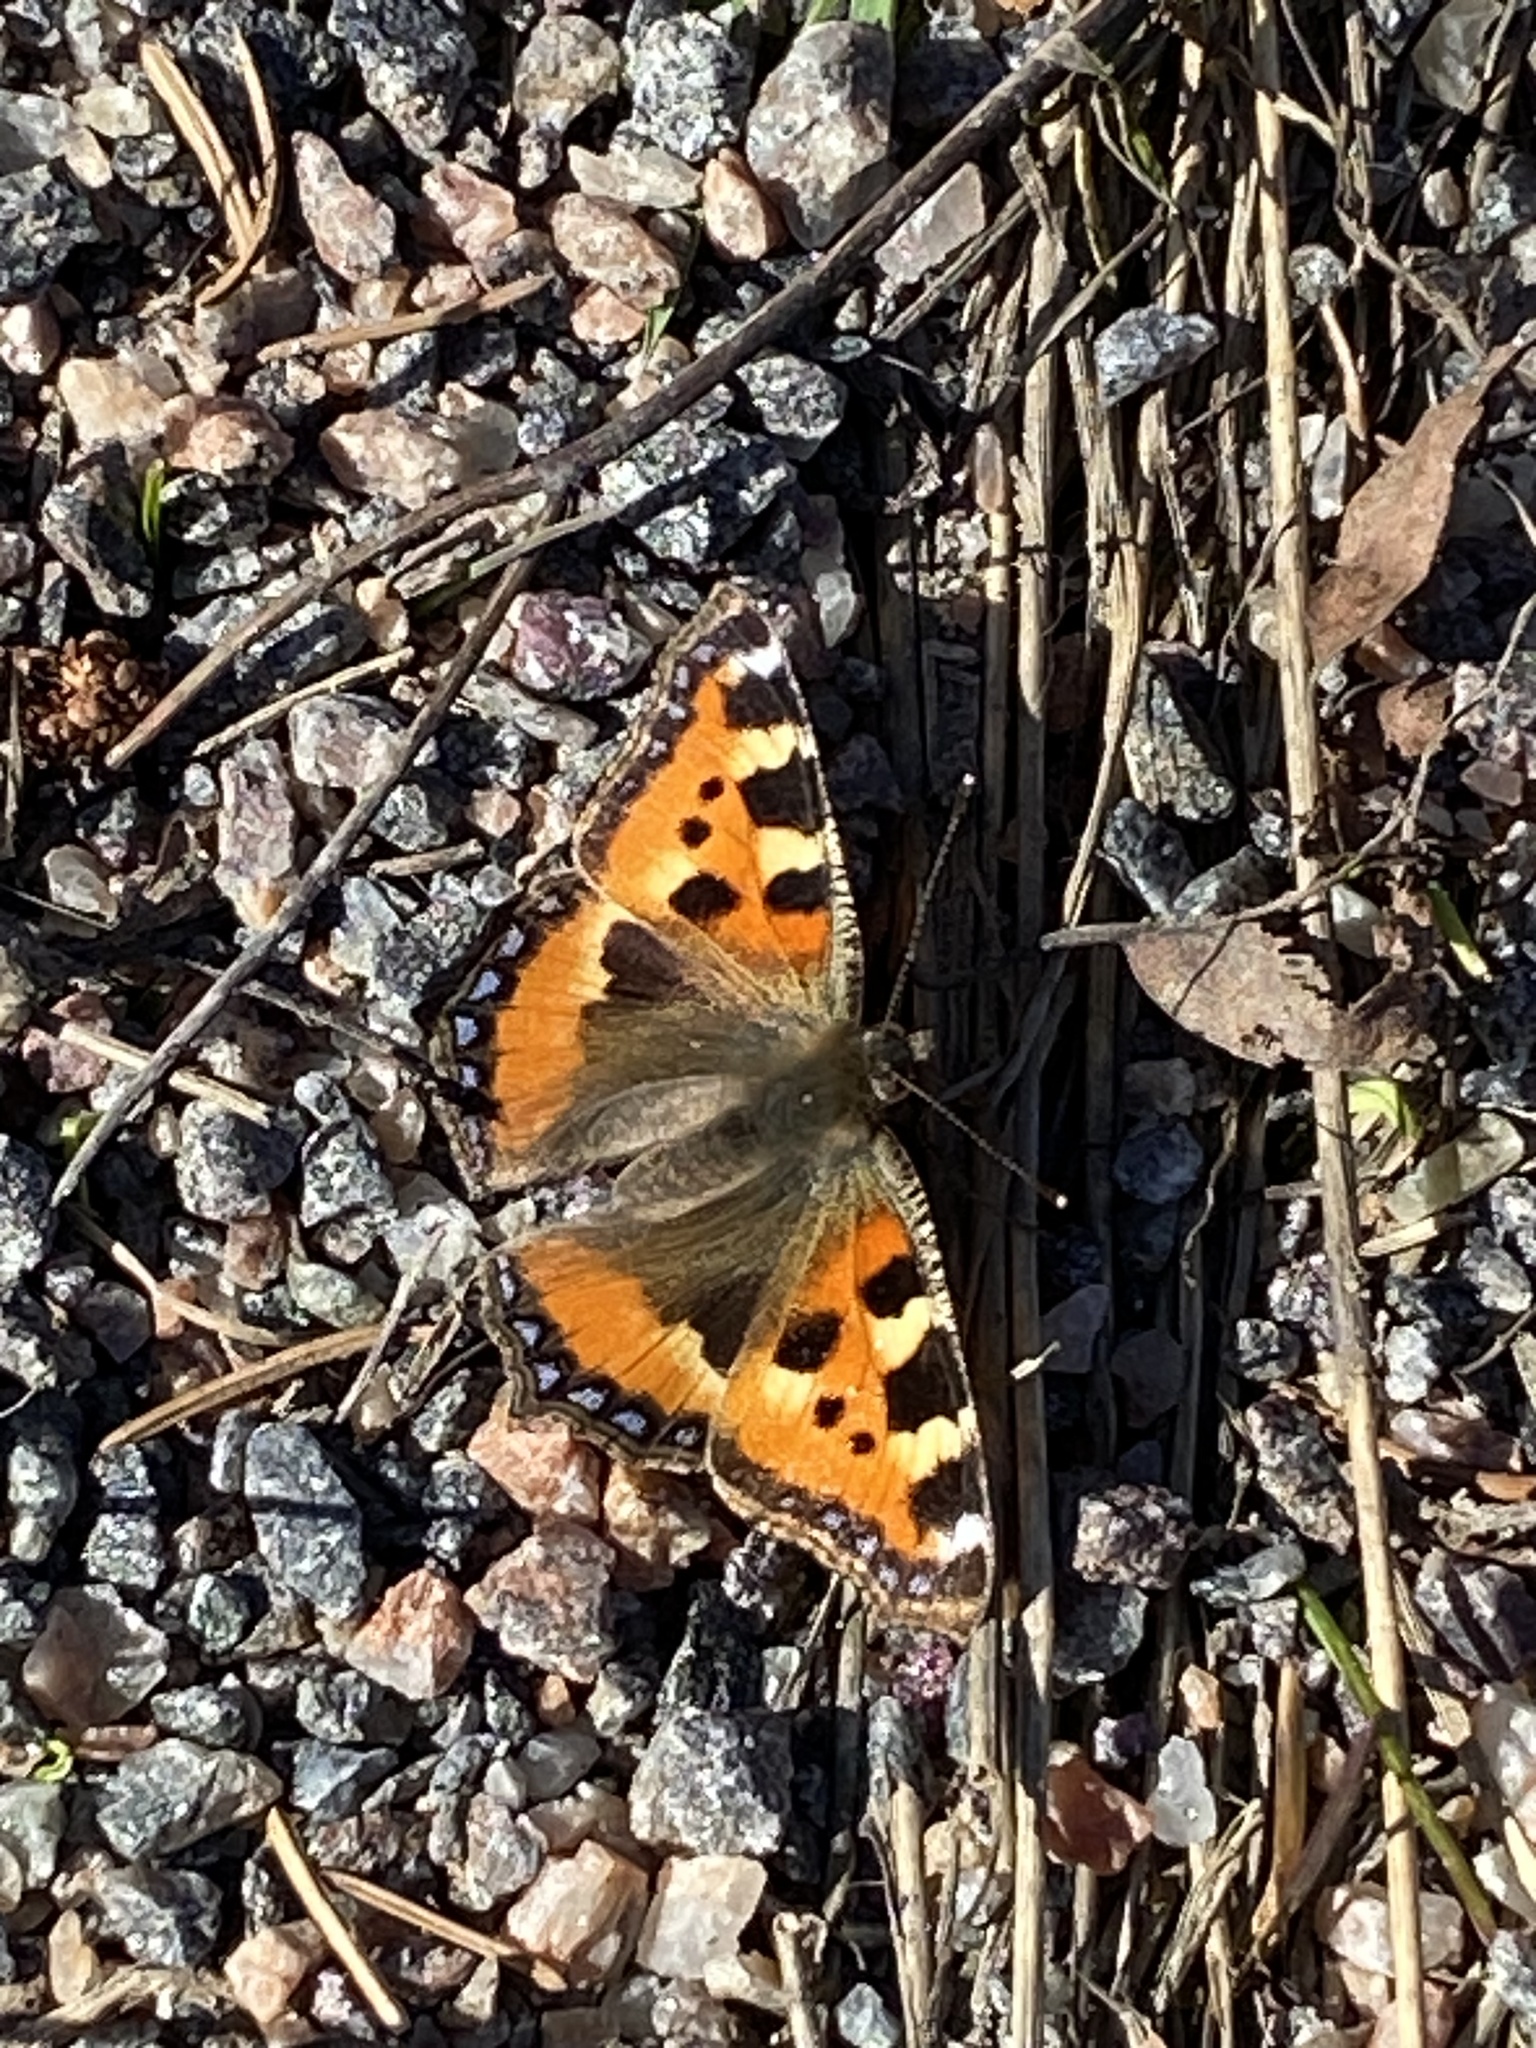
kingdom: Animalia
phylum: Arthropoda
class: Insecta
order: Lepidoptera
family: Nymphalidae
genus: Aglais
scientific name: Aglais urticae
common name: Small tortoiseshell
